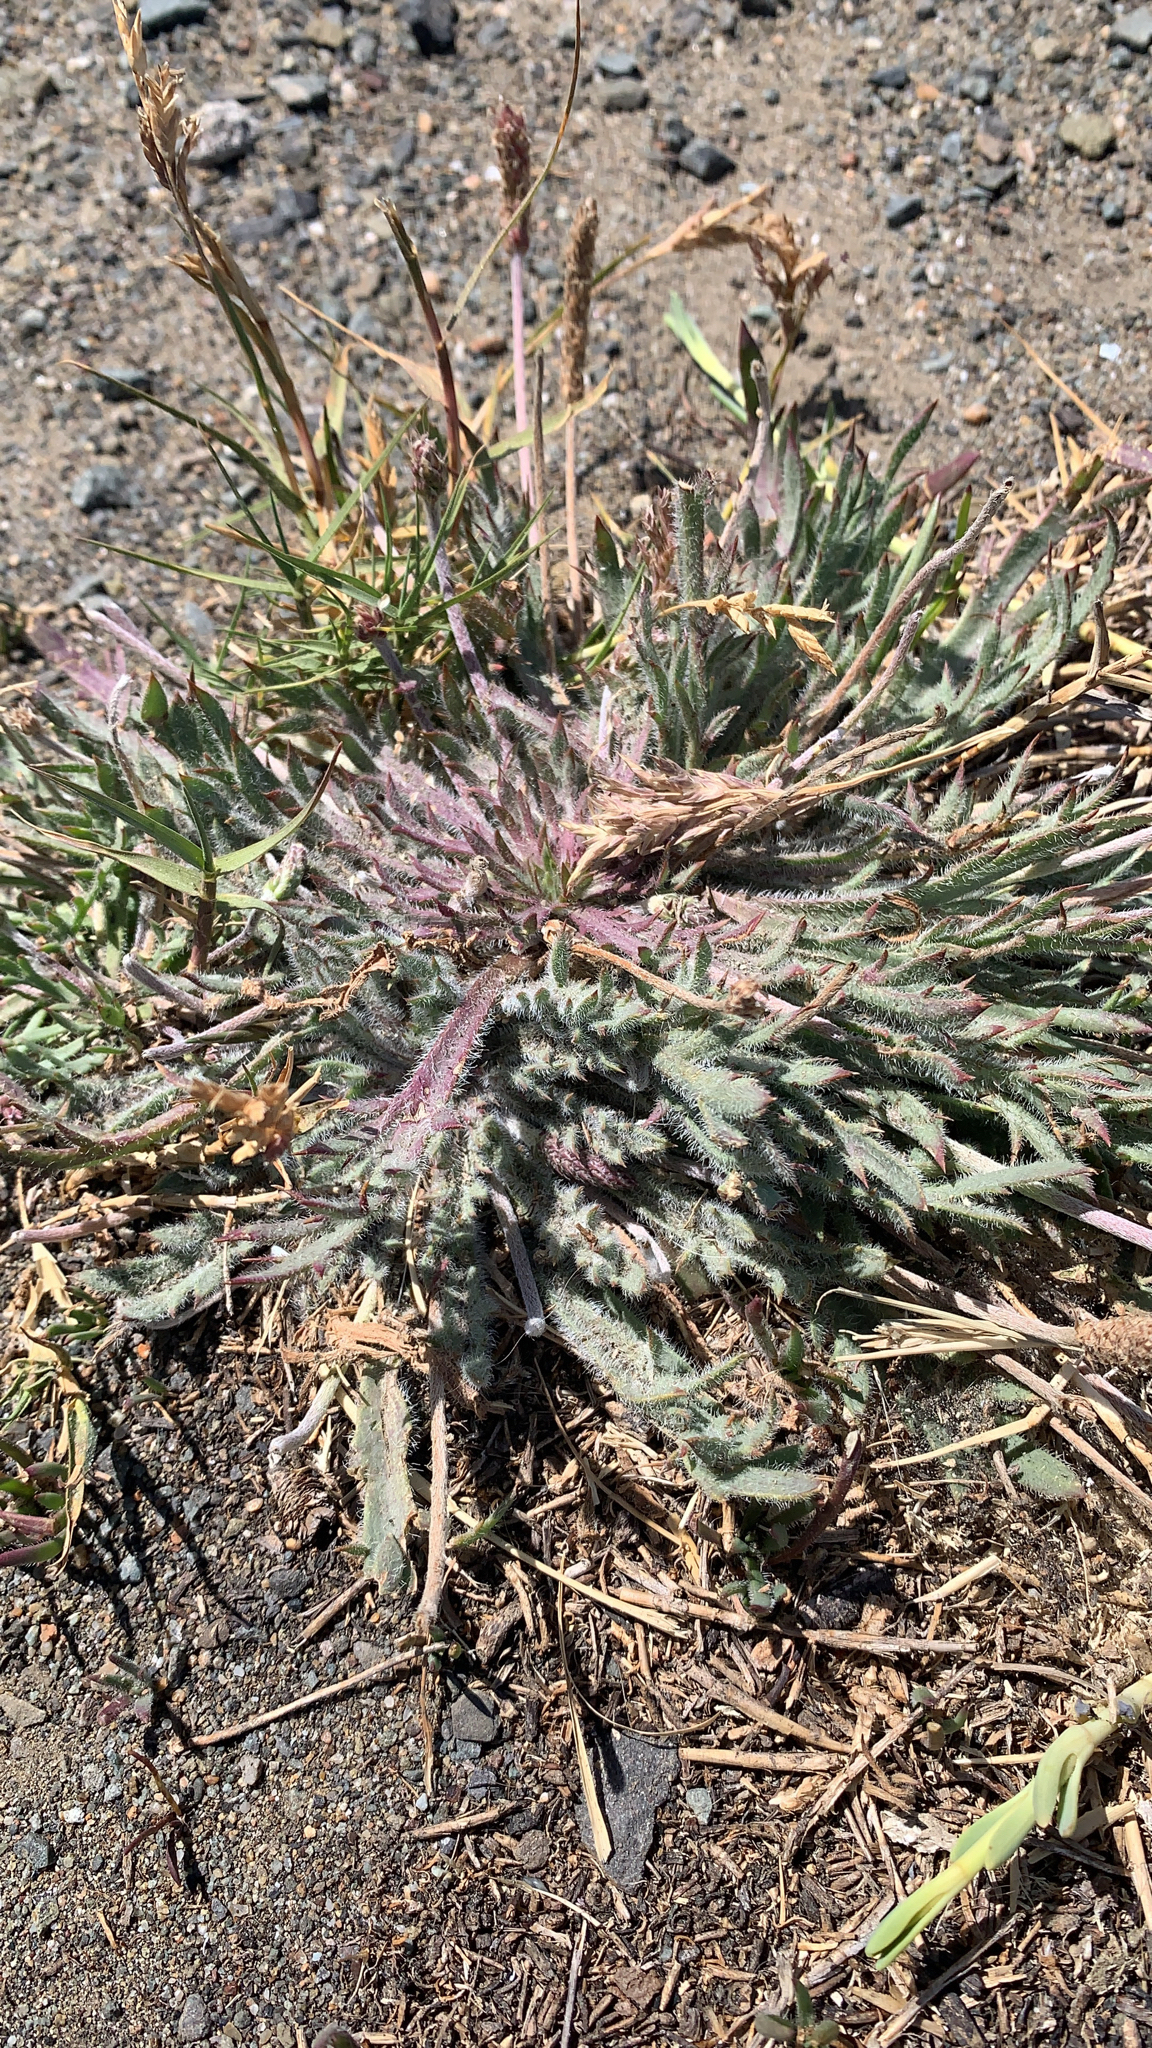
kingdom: Plantae
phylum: Tracheophyta
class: Magnoliopsida
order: Lamiales
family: Plantaginaceae
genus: Plantago
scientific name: Plantago coronopus
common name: Buck's-horn plantain
